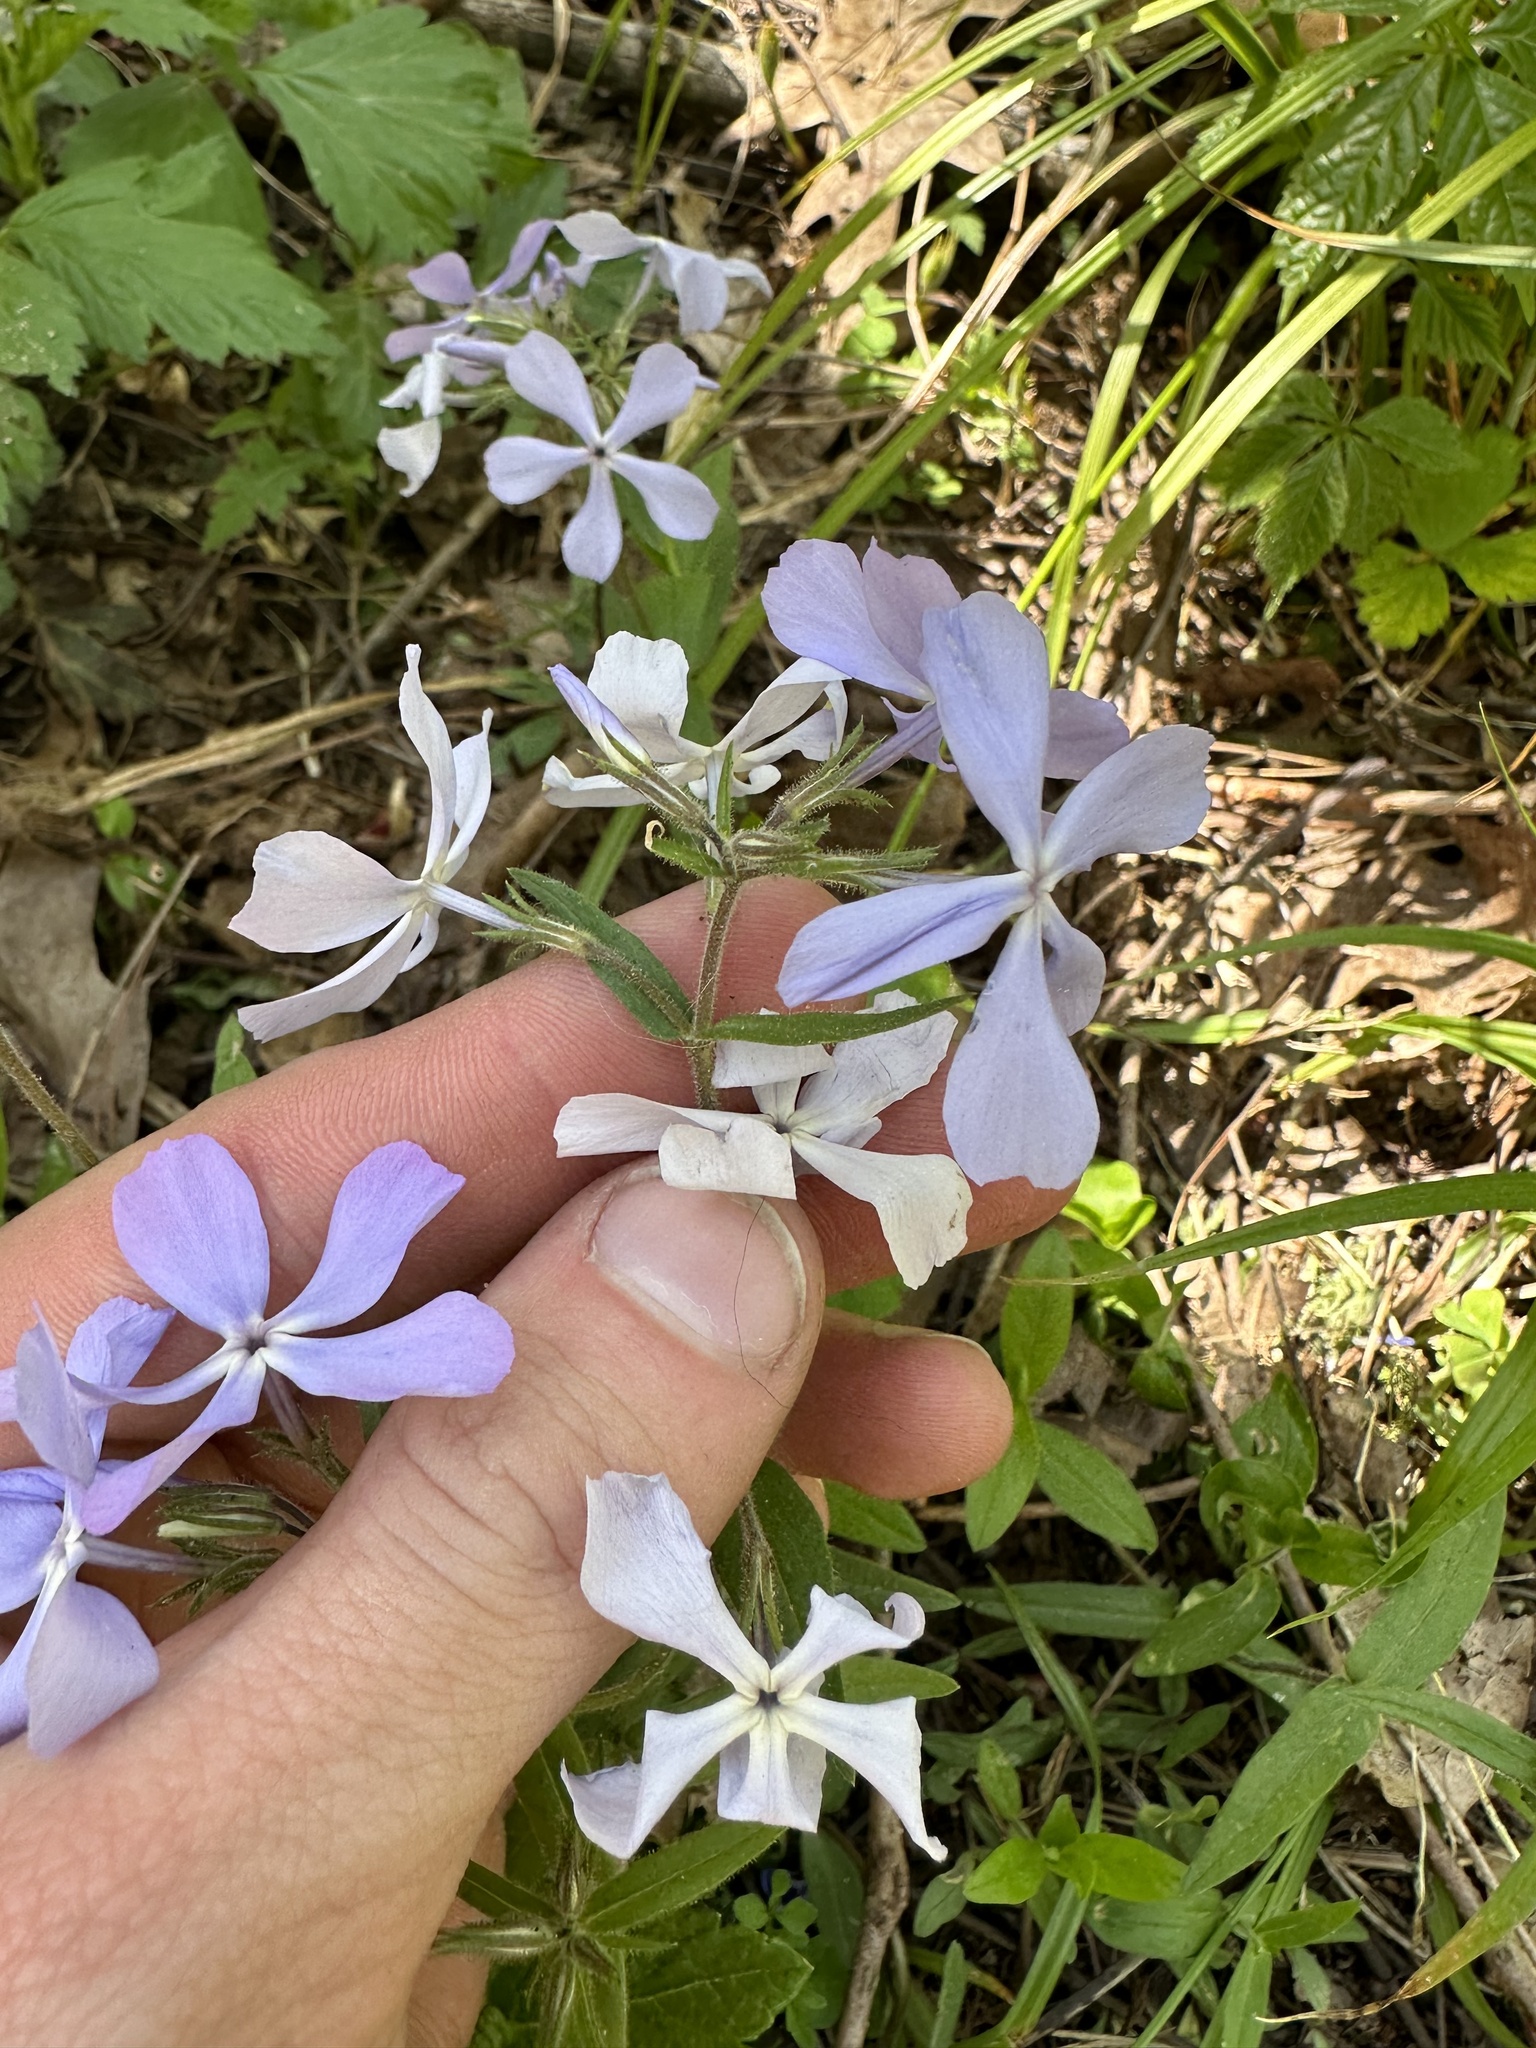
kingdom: Plantae
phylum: Tracheophyta
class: Magnoliopsida
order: Ericales
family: Polemoniaceae
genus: Phlox
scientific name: Phlox divaricata
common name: Blue phlox
